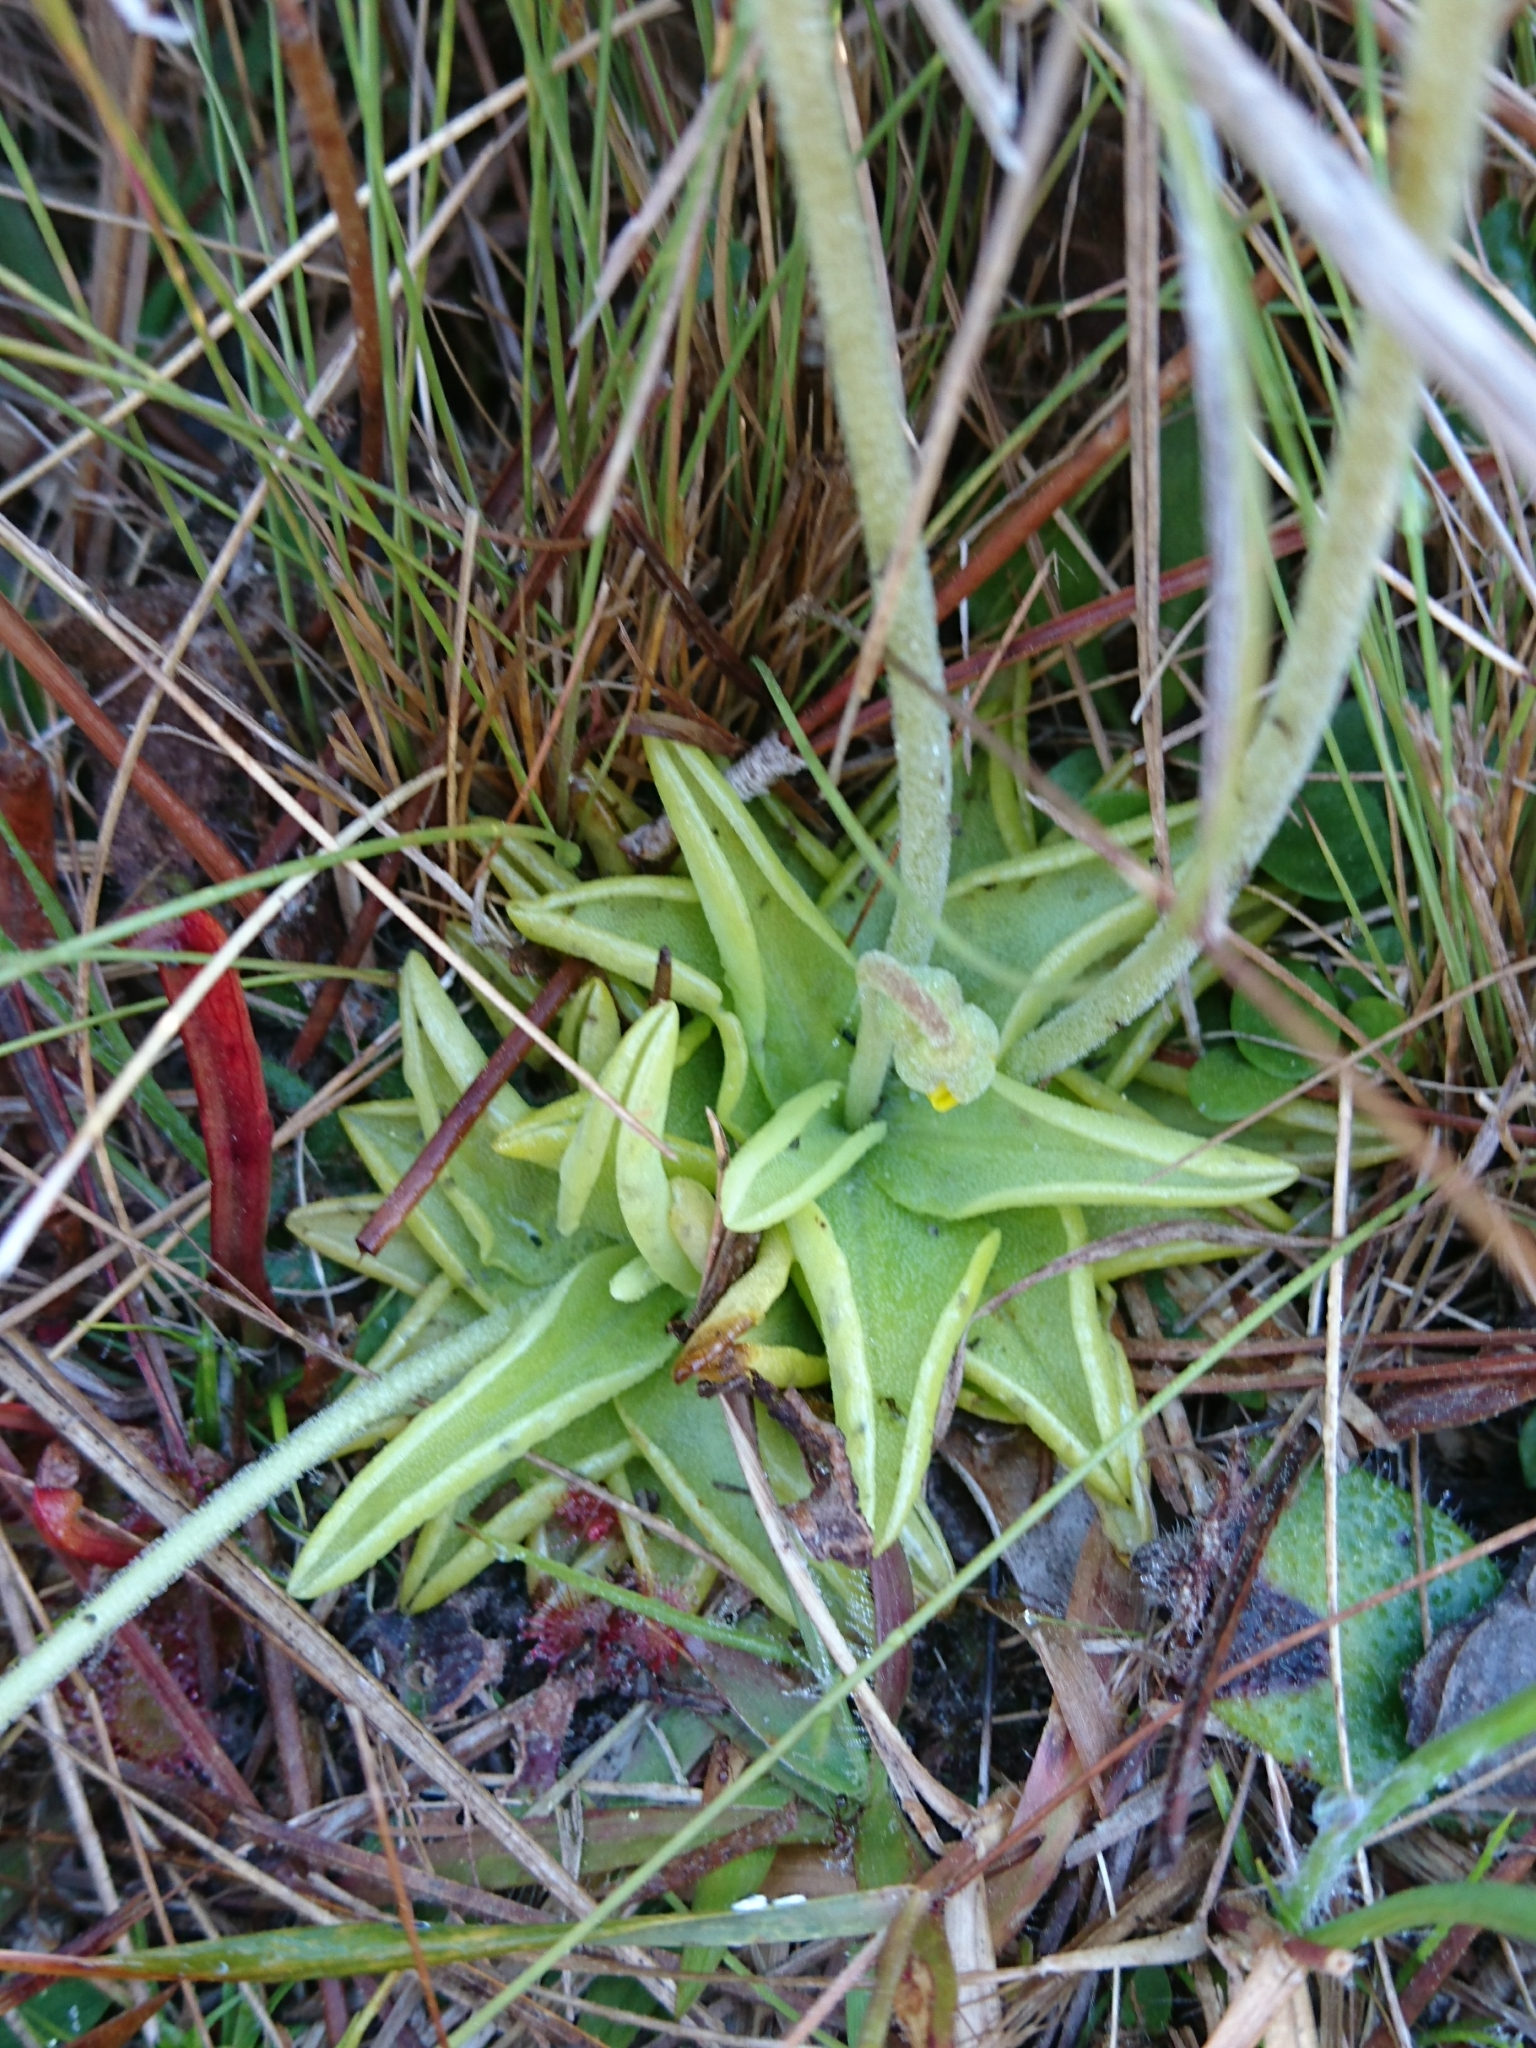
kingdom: Plantae
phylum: Tracheophyta
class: Magnoliopsida
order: Lamiales
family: Lentibulariaceae
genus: Pinguicula
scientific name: Pinguicula lutea
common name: Yellow butterwort
